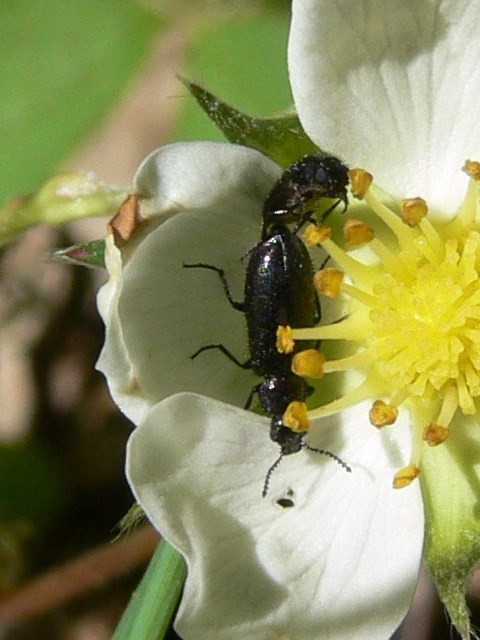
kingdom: Animalia
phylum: Arthropoda
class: Insecta
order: Coleoptera
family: Melyridae
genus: Dasytes
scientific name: Dasytes niger
